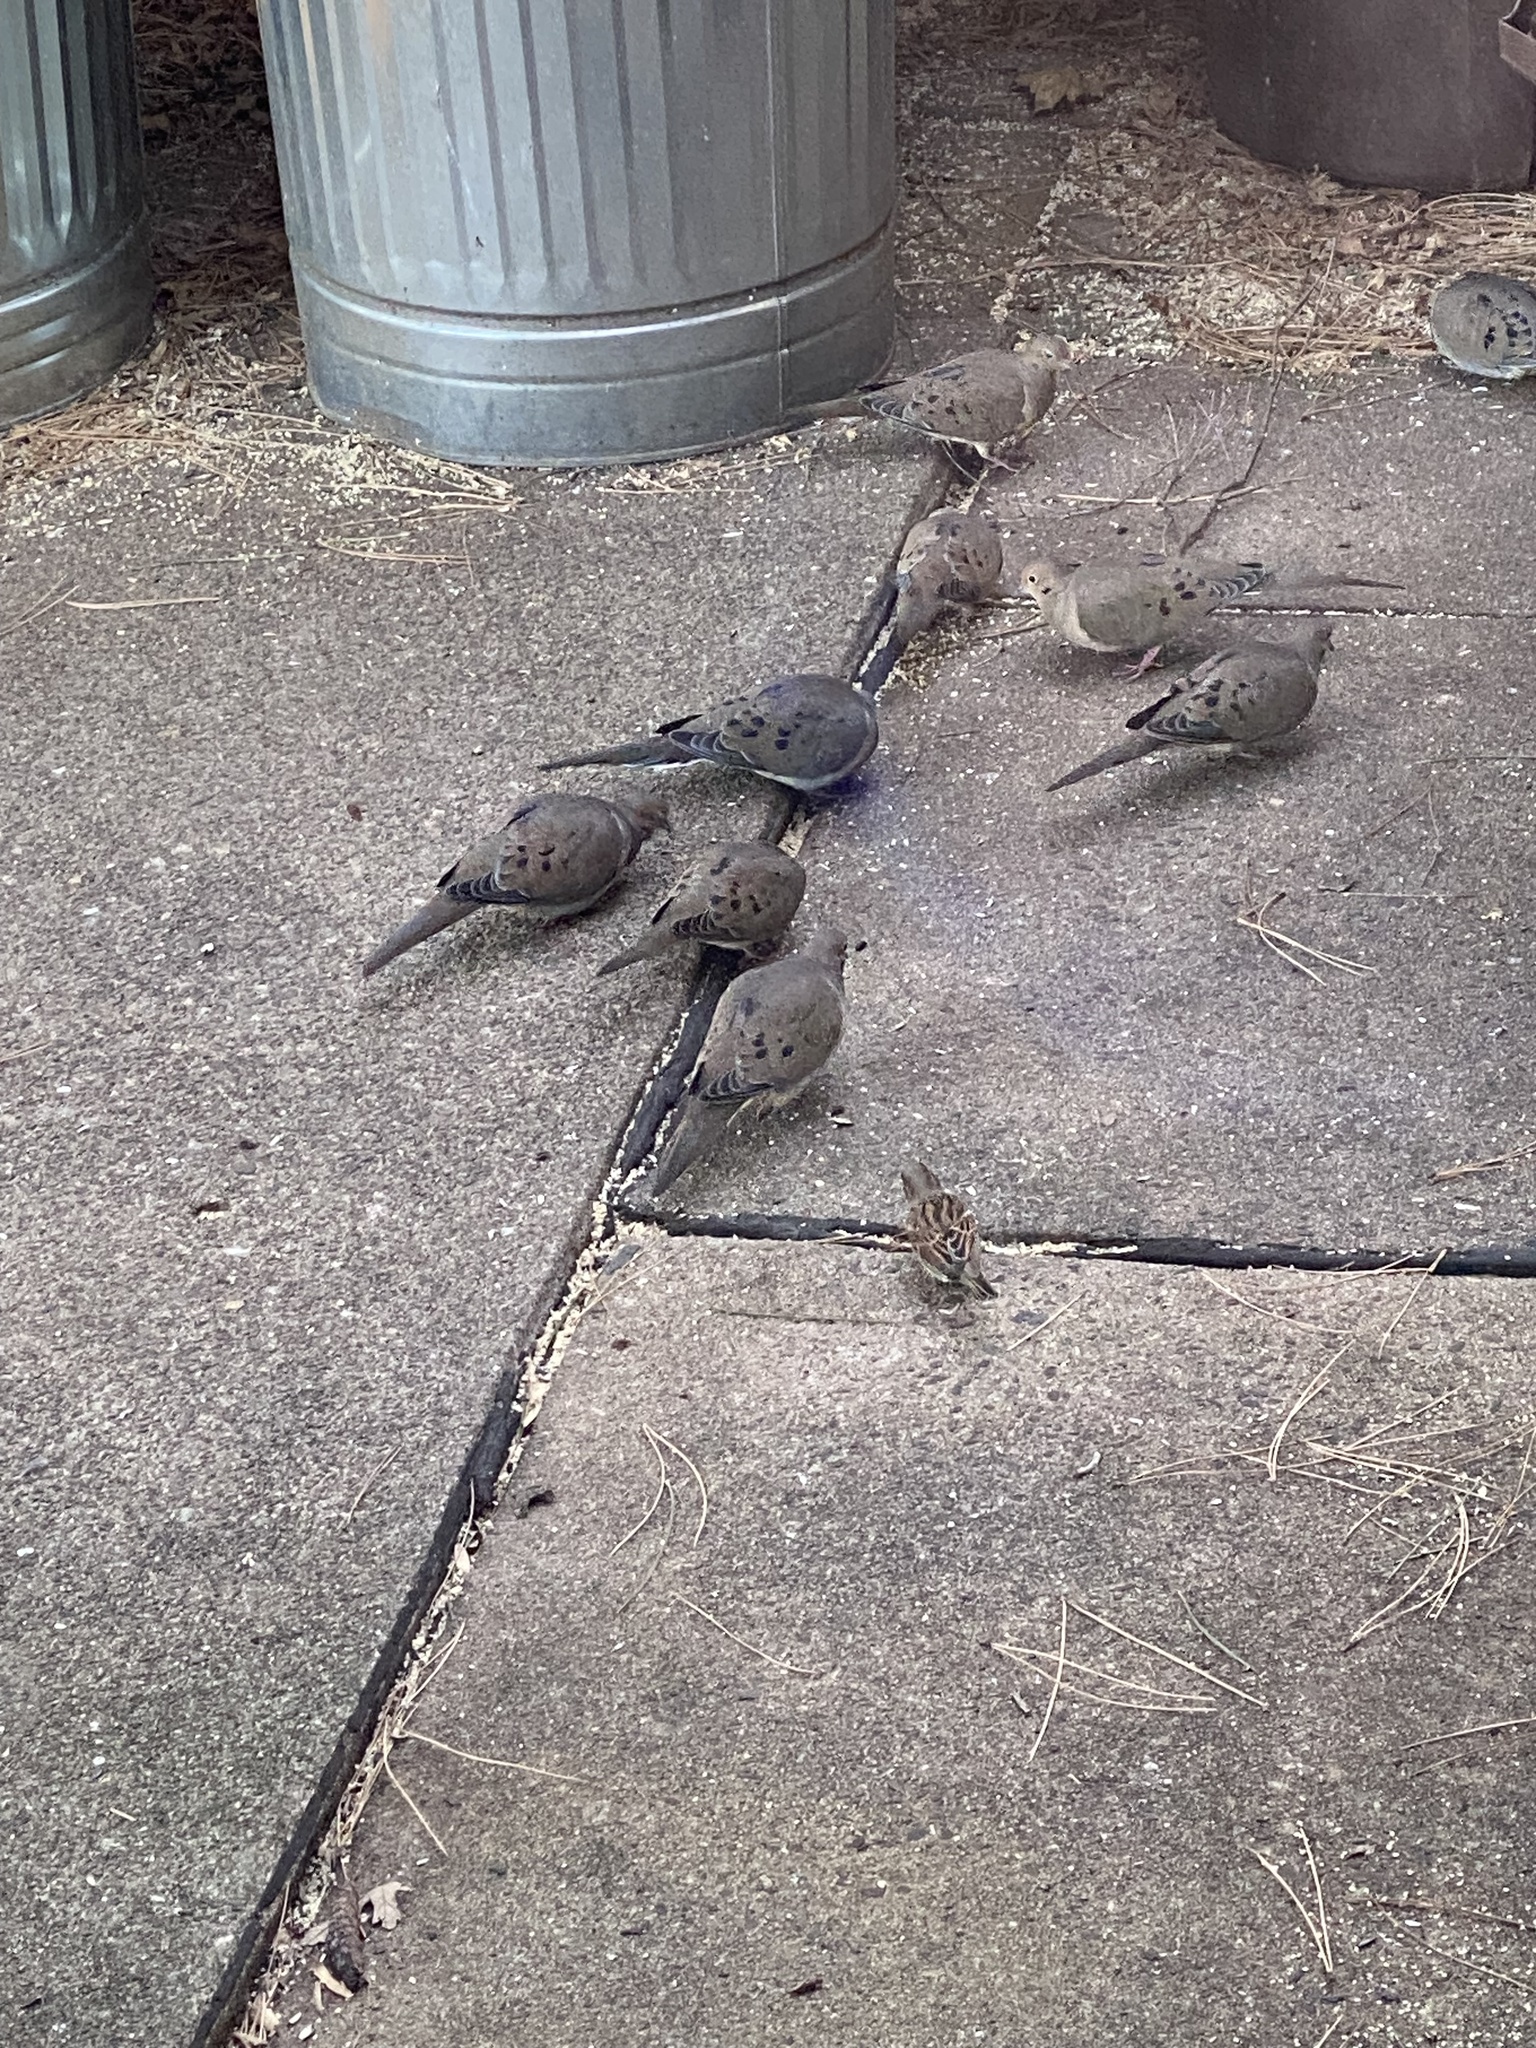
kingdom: Animalia
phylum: Chordata
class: Aves
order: Columbiformes
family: Columbidae
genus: Zenaida
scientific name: Zenaida macroura
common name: Mourning dove
